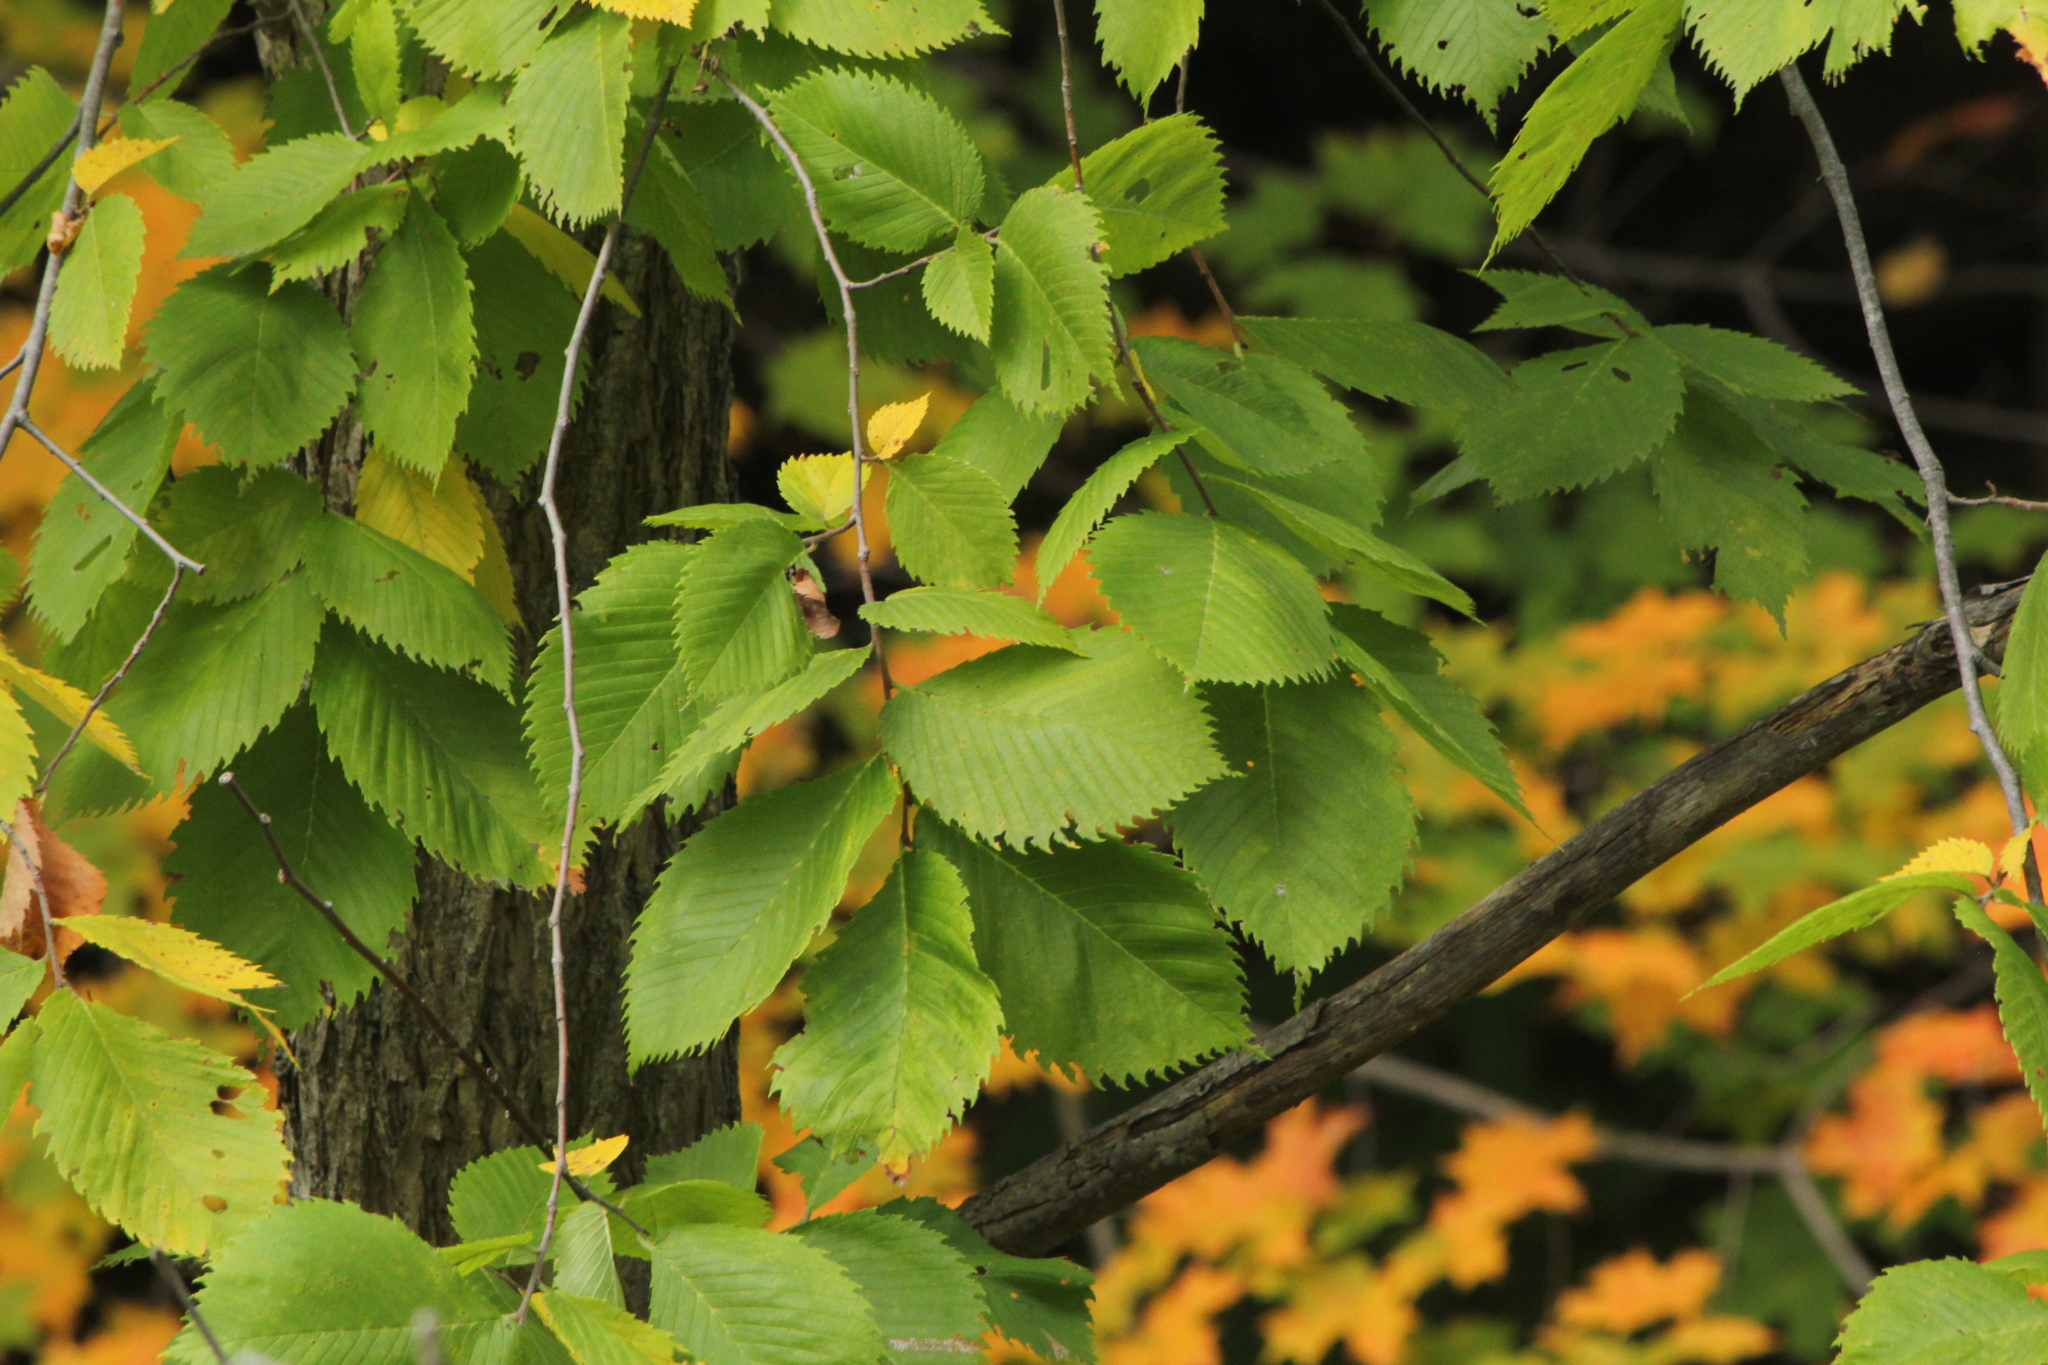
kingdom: Plantae
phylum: Tracheophyta
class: Magnoliopsida
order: Rosales
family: Ulmaceae
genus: Ulmus
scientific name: Ulmus americana
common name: American elm
